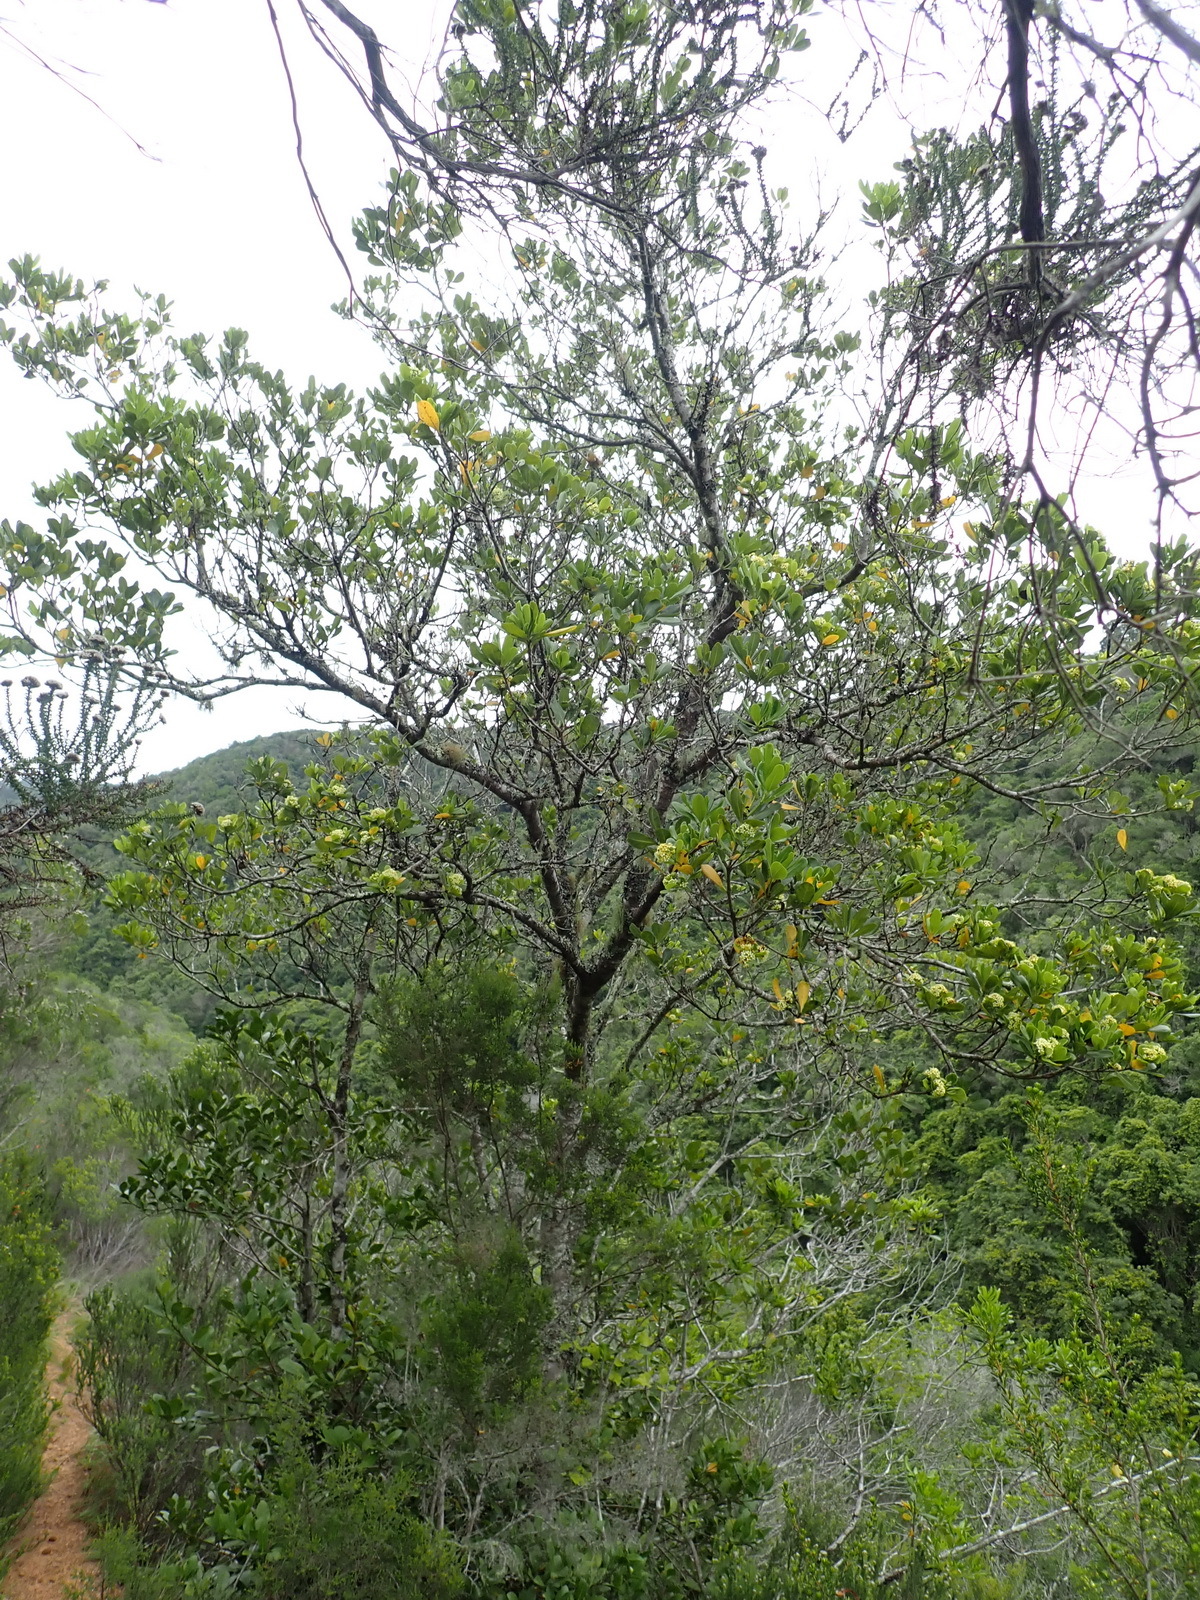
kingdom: Plantae
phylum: Tracheophyta
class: Magnoliopsida
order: Apiales
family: Pittosporaceae
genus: Pittosporum
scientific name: Pittosporum viridiflorum
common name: Cape cheesewood
